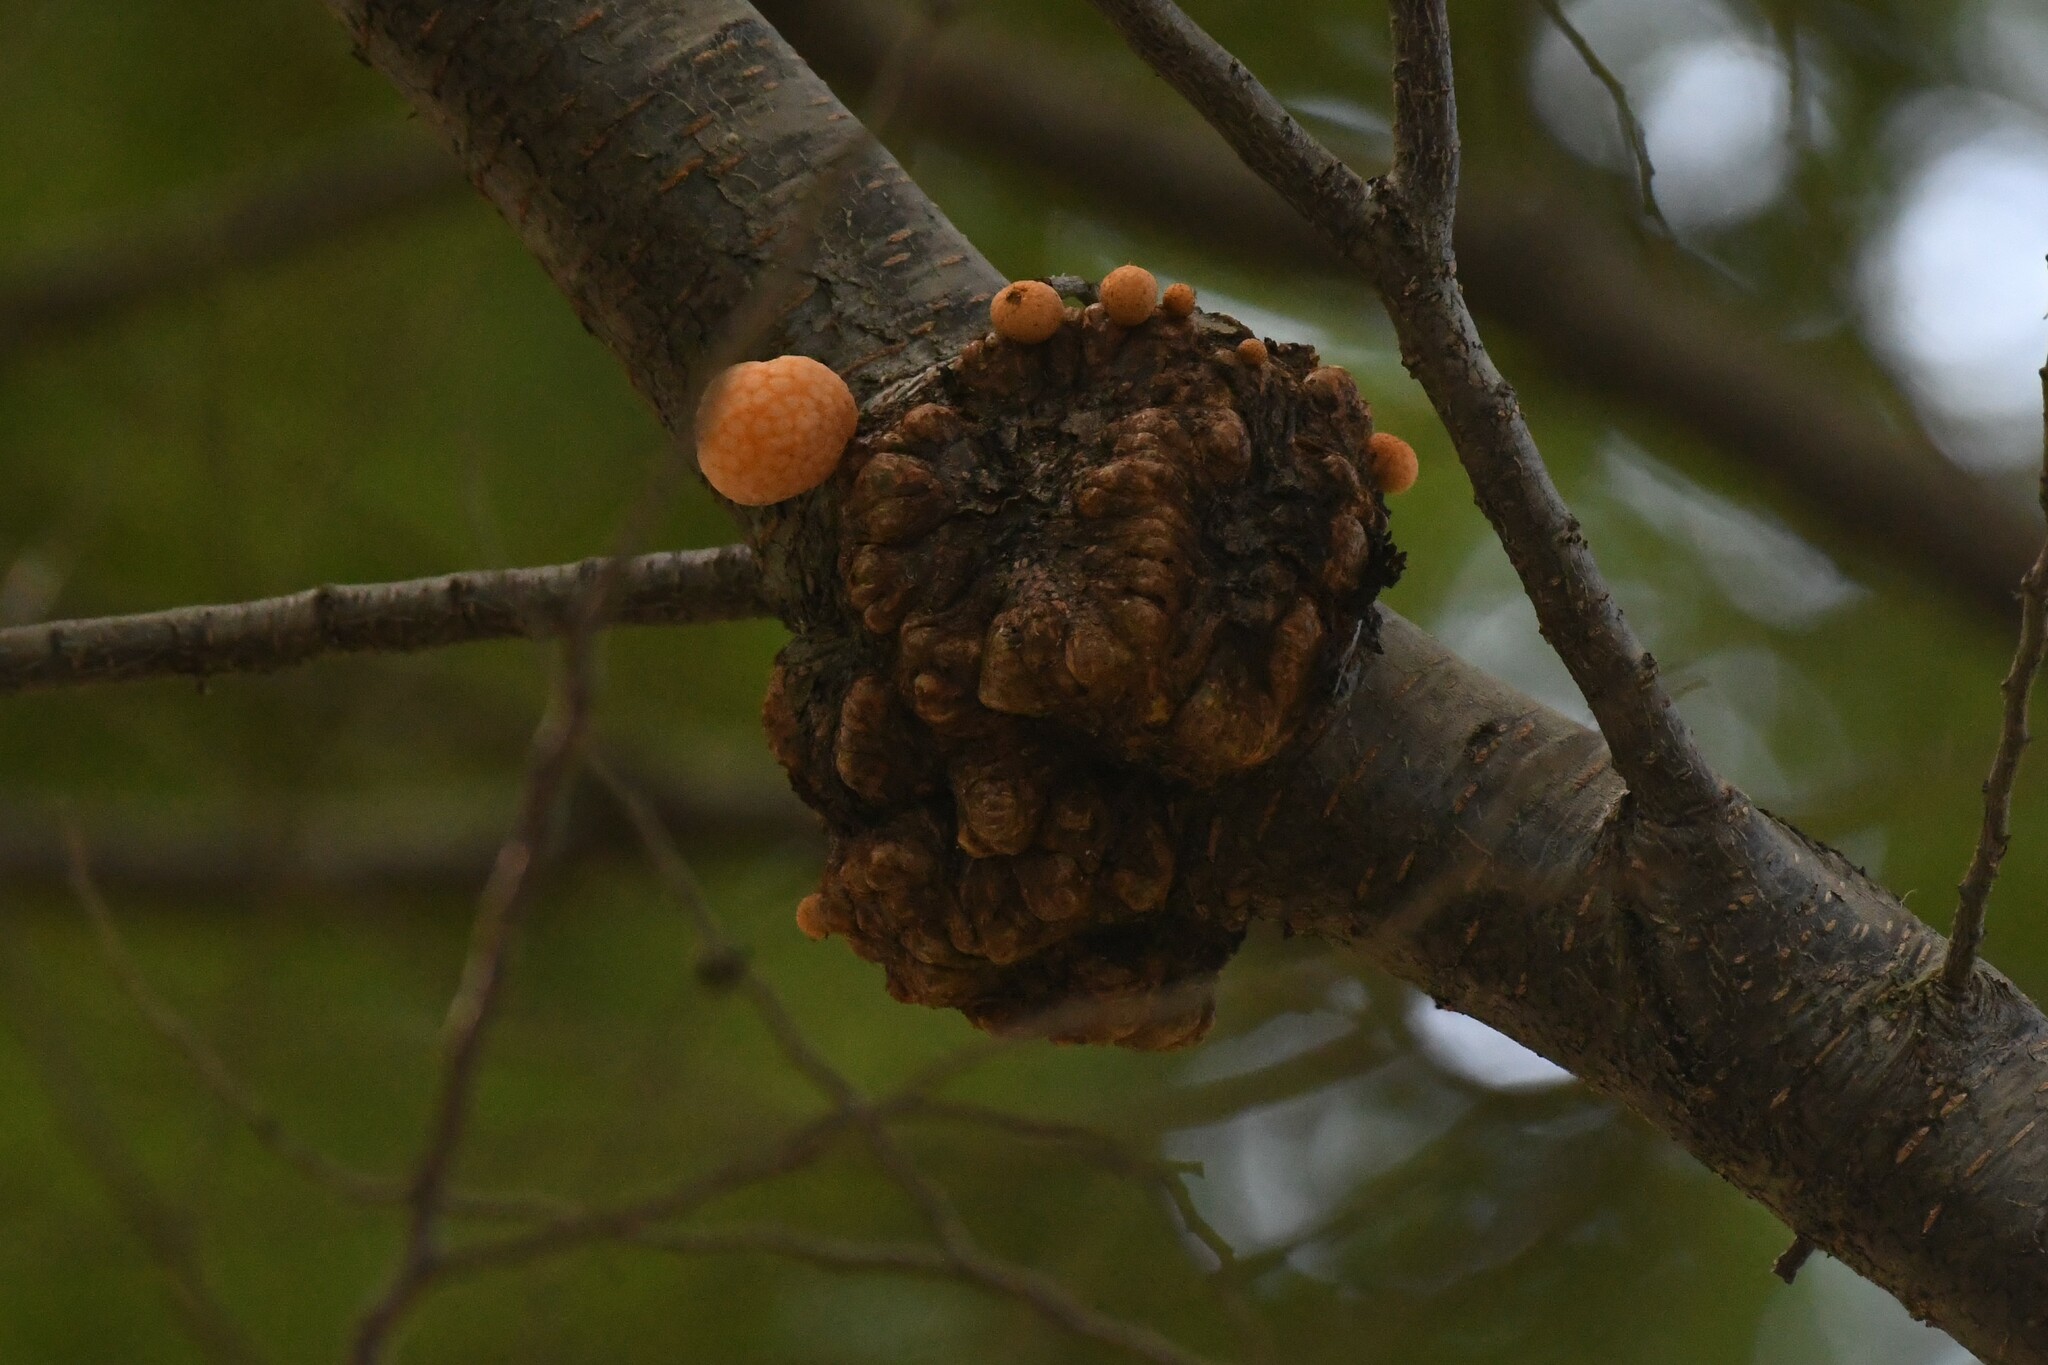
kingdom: Fungi
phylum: Ascomycota
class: Leotiomycetes
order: Cyttariales
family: Cyttariaceae
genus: Cyttaria
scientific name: Cyttaria darwinii
